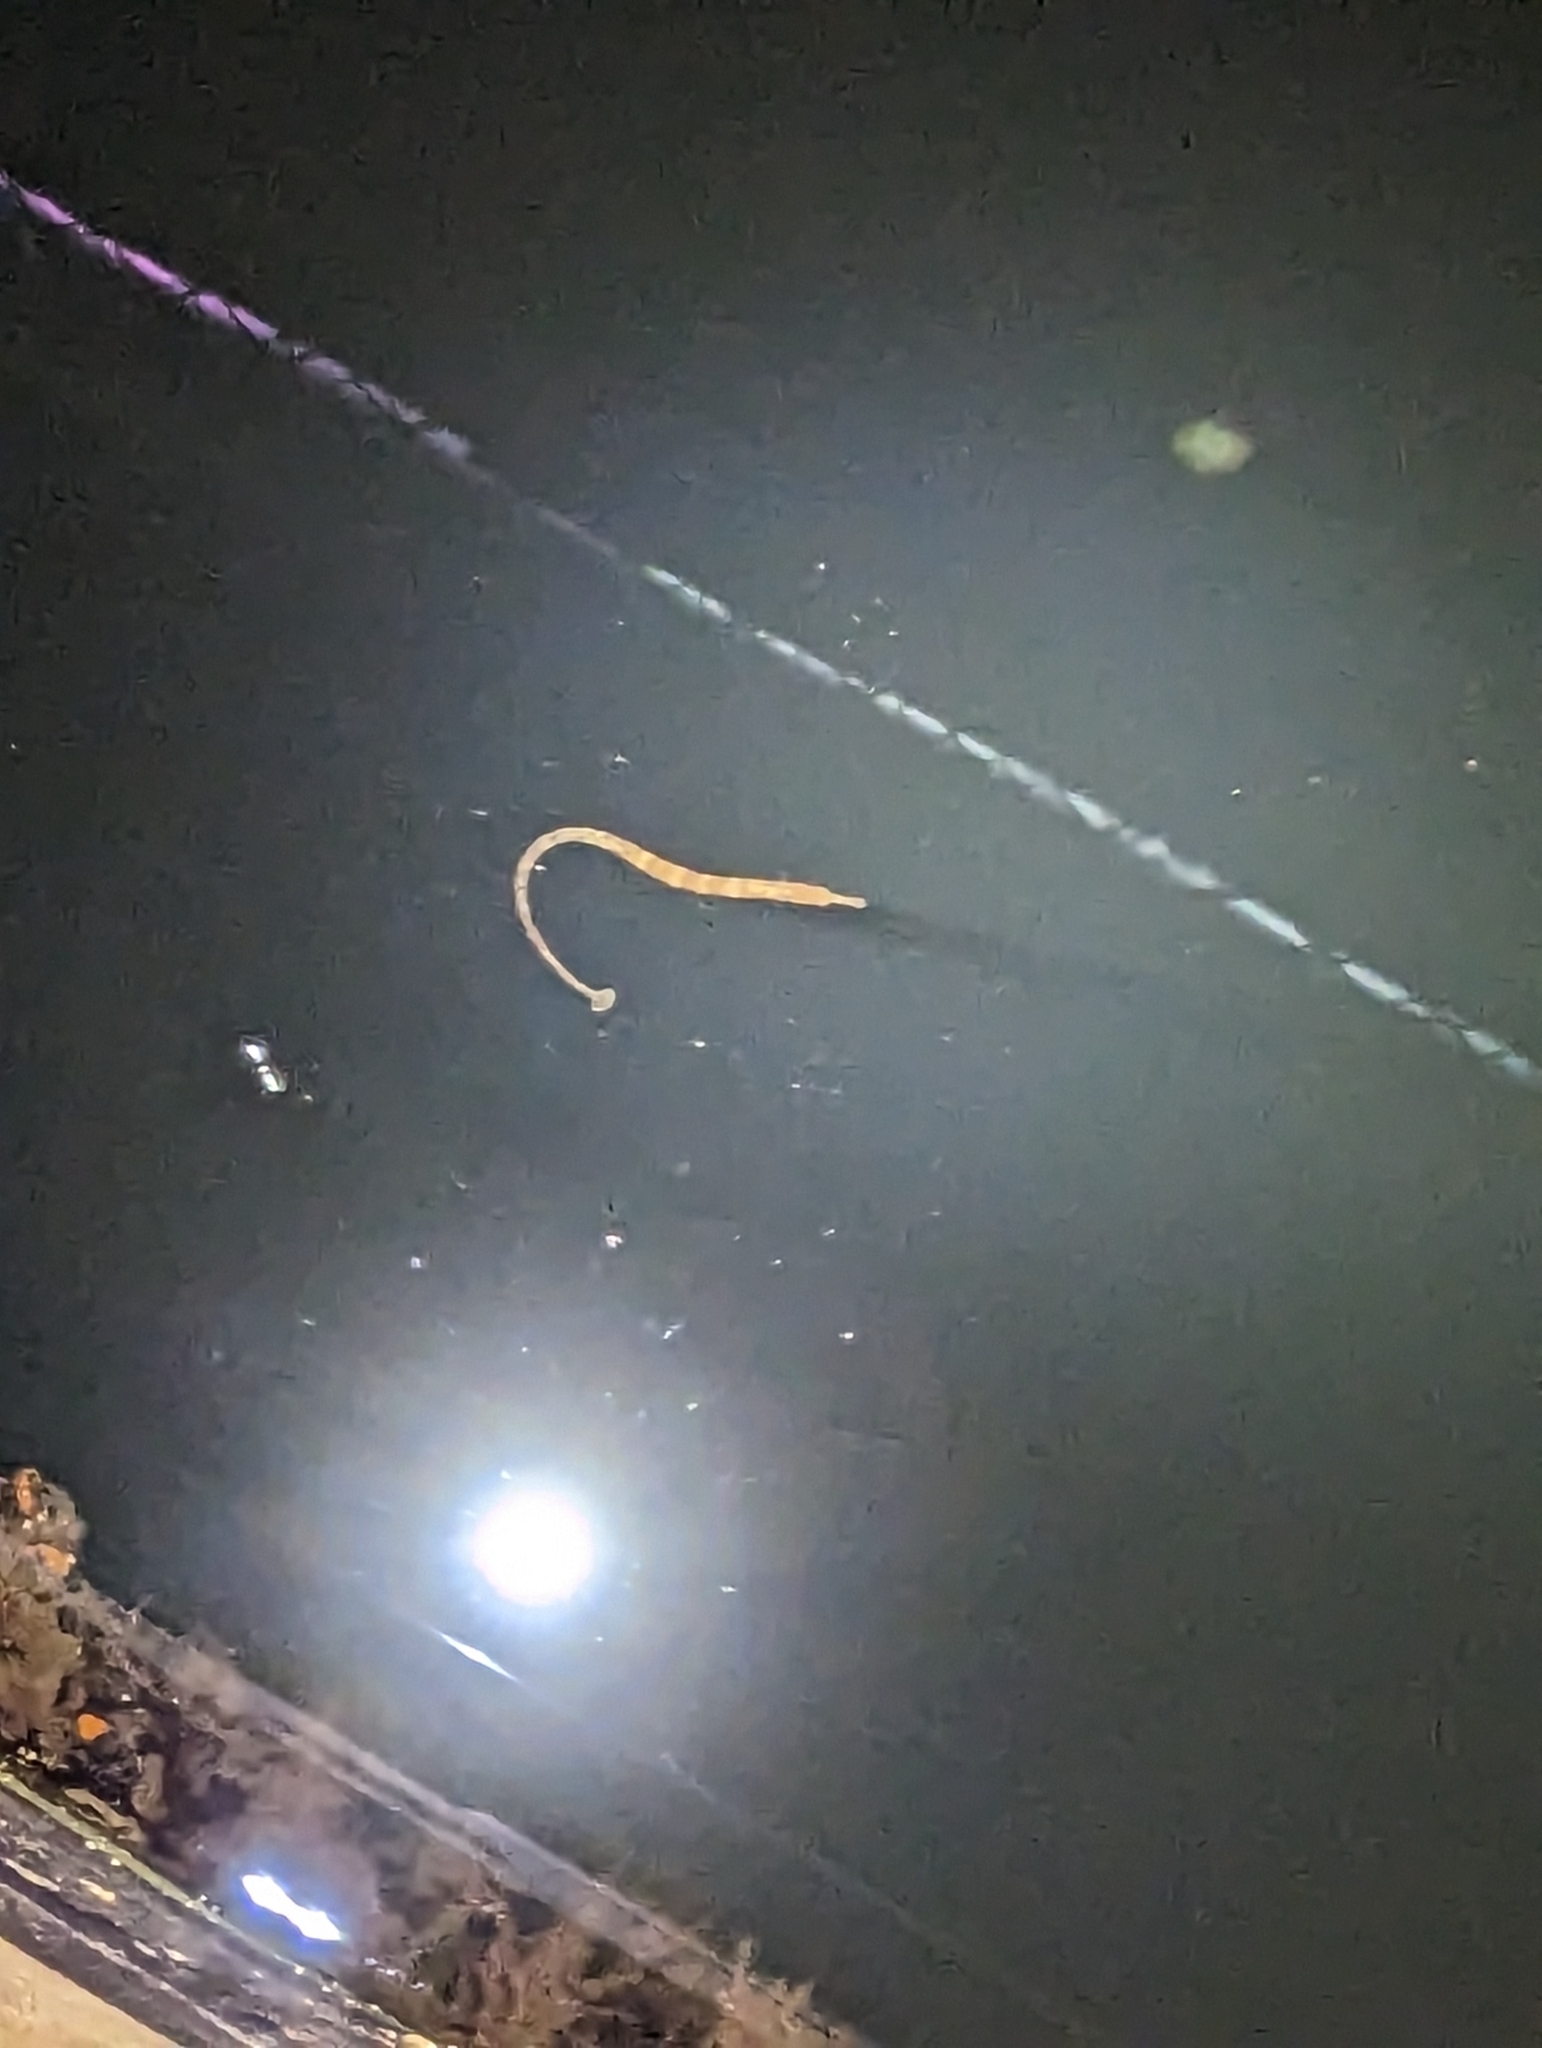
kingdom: Animalia
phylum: Chordata
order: Syngnathiformes
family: Syngnathidae
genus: Syngnathus
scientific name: Syngnathus californiensis
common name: Great pipefish
